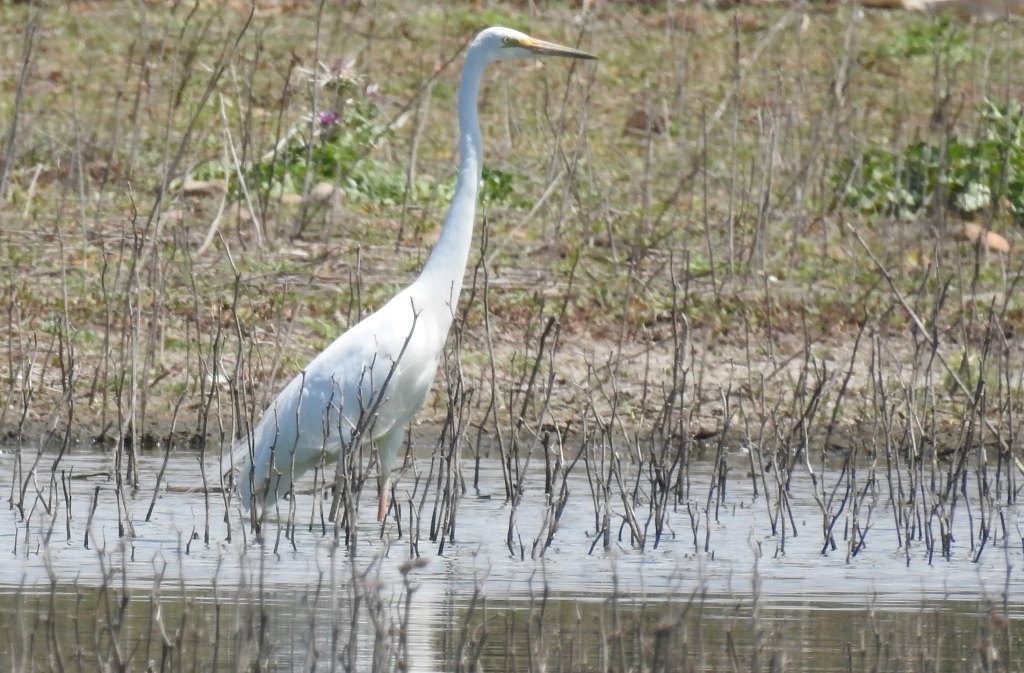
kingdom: Animalia
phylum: Chordata
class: Aves
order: Pelecaniformes
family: Ardeidae
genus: Ardea
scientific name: Ardea alba
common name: Great egret
